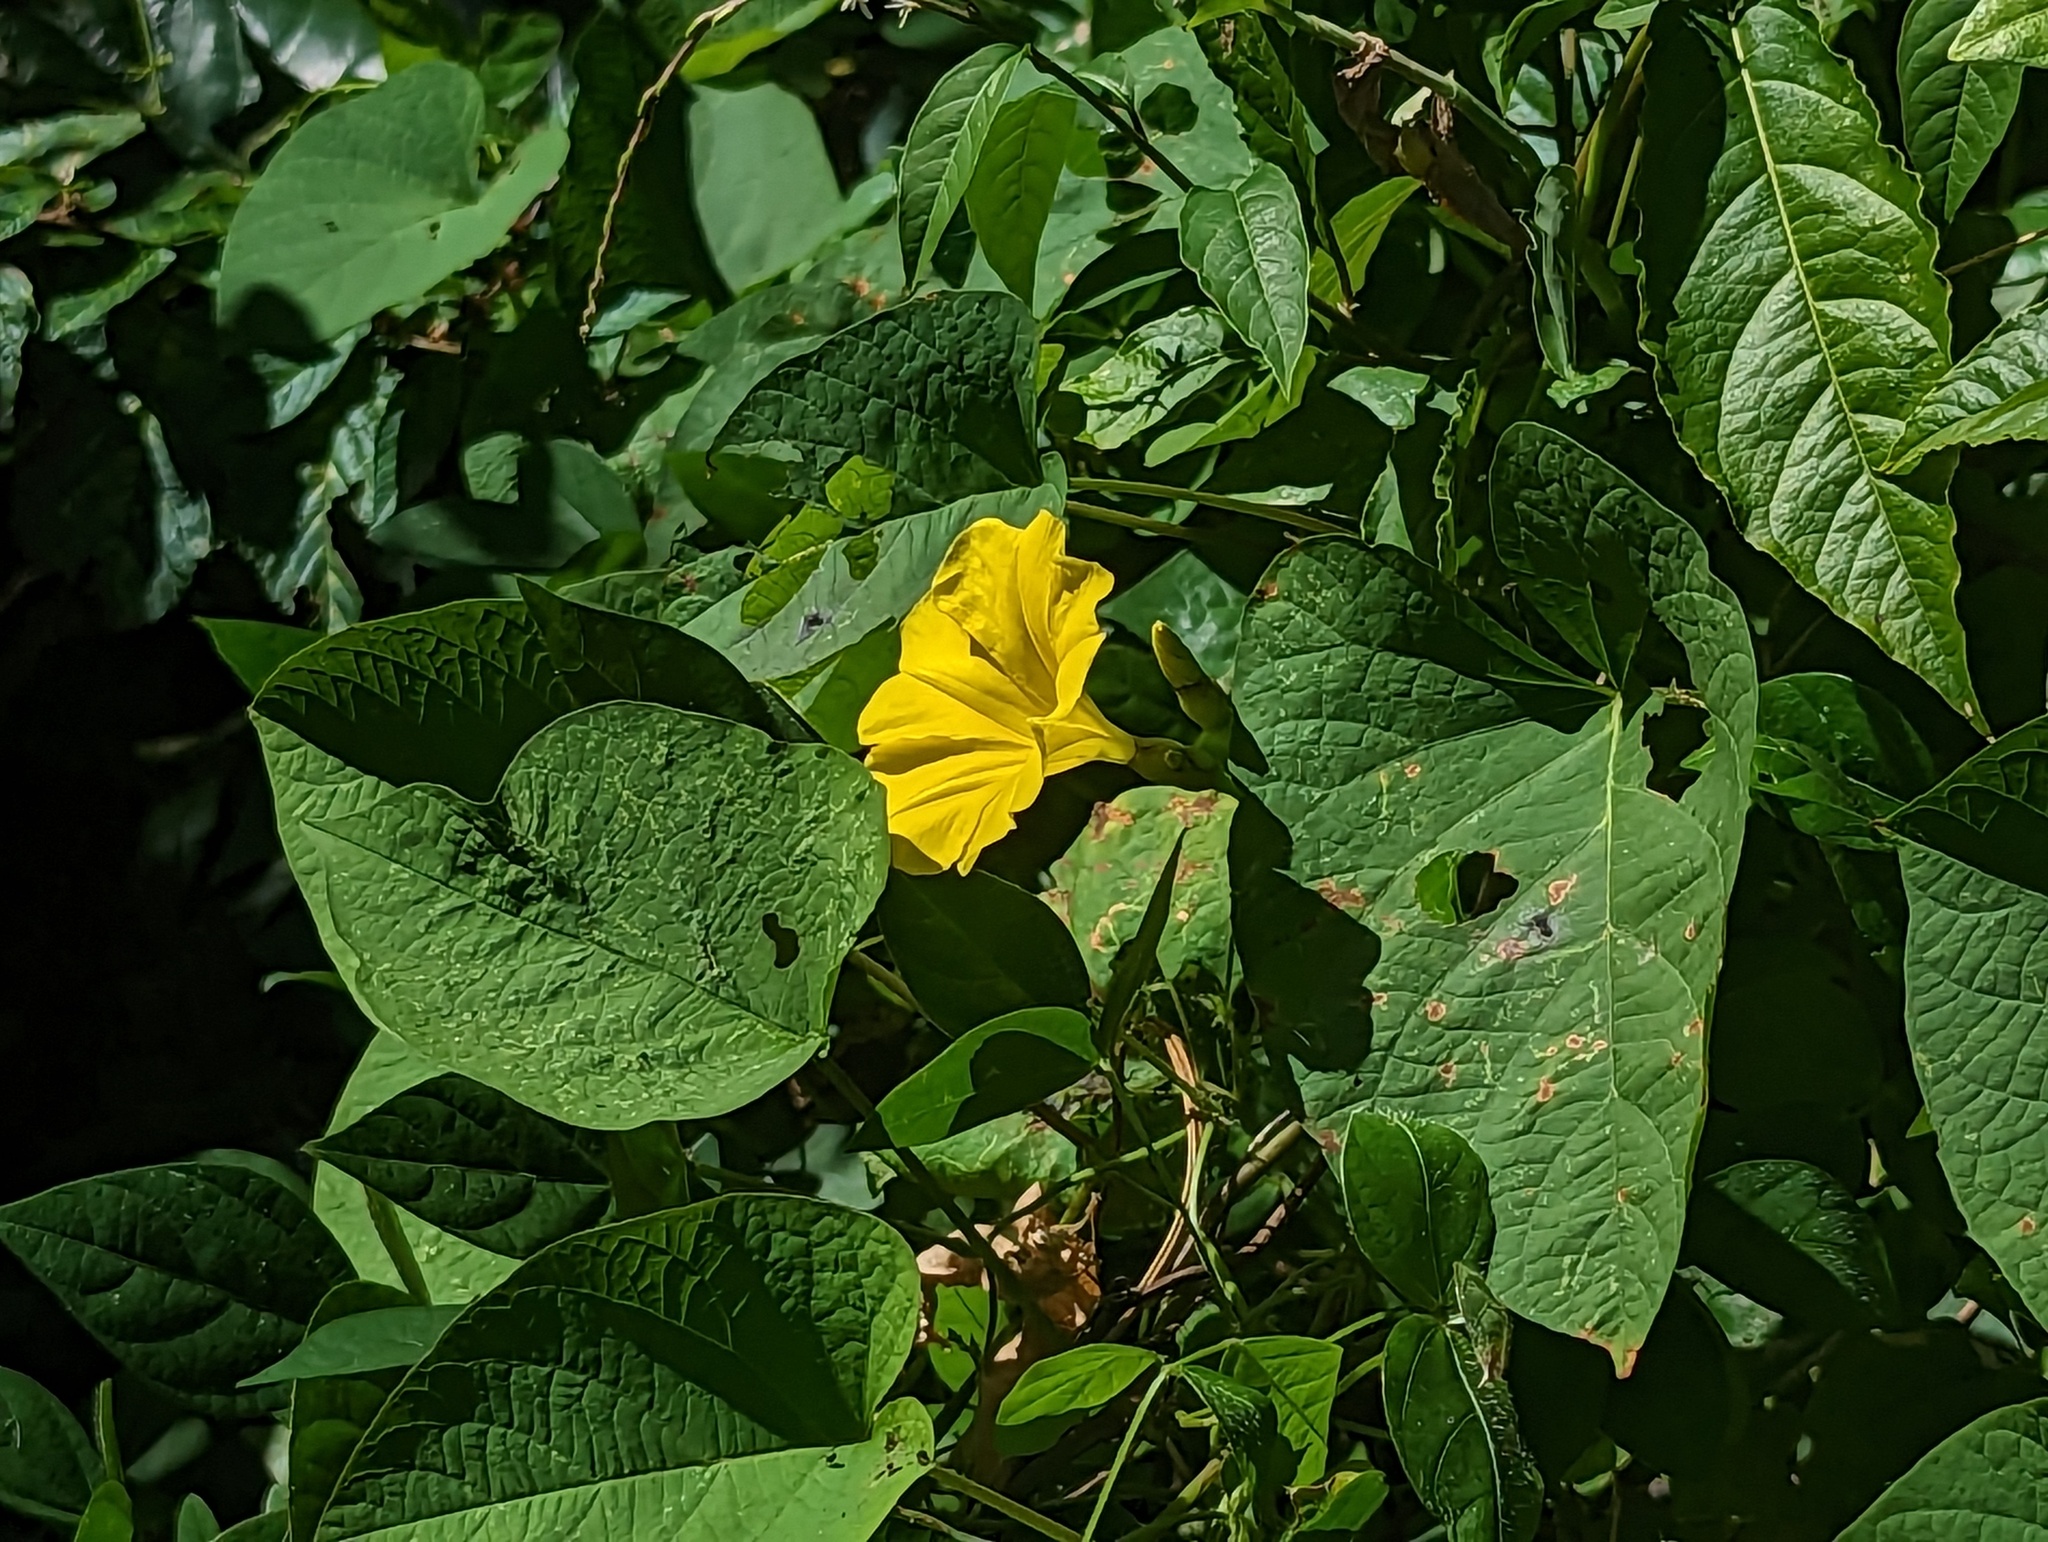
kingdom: Plantae
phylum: Tracheophyta
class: Magnoliopsida
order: Solanales
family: Convolvulaceae
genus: Camonea
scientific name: Camonea umbellata
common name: Hogvine
